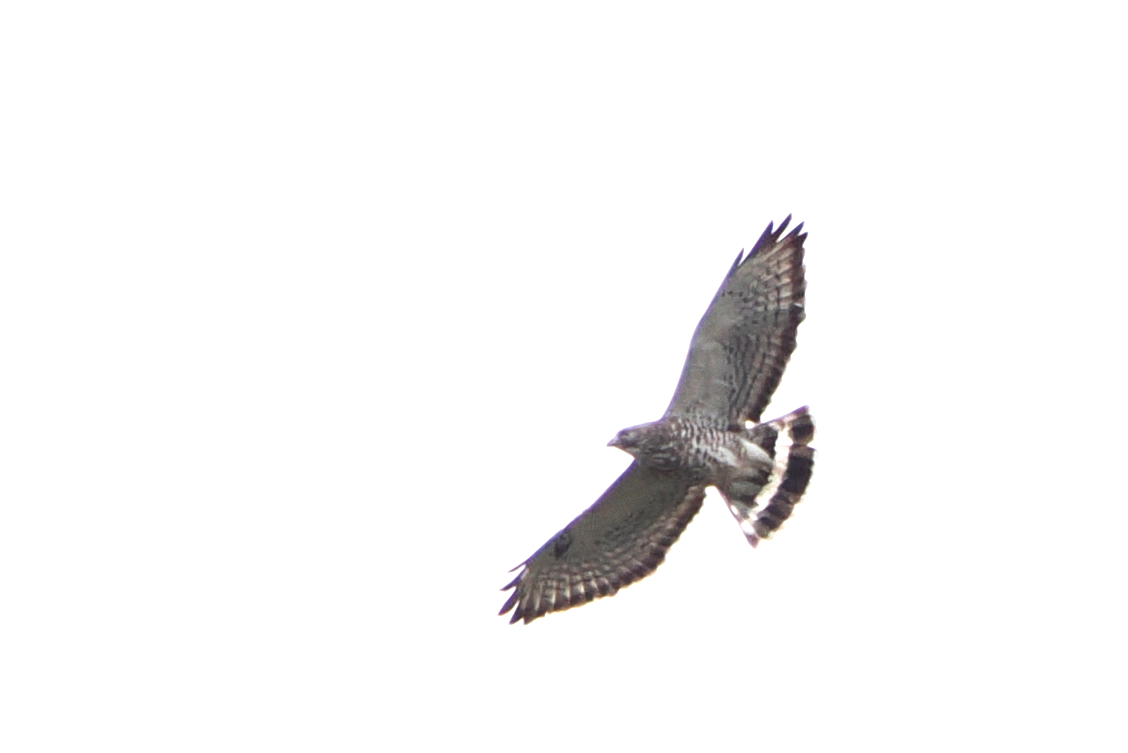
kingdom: Animalia
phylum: Chordata
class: Aves
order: Accipitriformes
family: Accipitridae
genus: Buteo
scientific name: Buteo platypterus
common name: Broad-winged hawk
